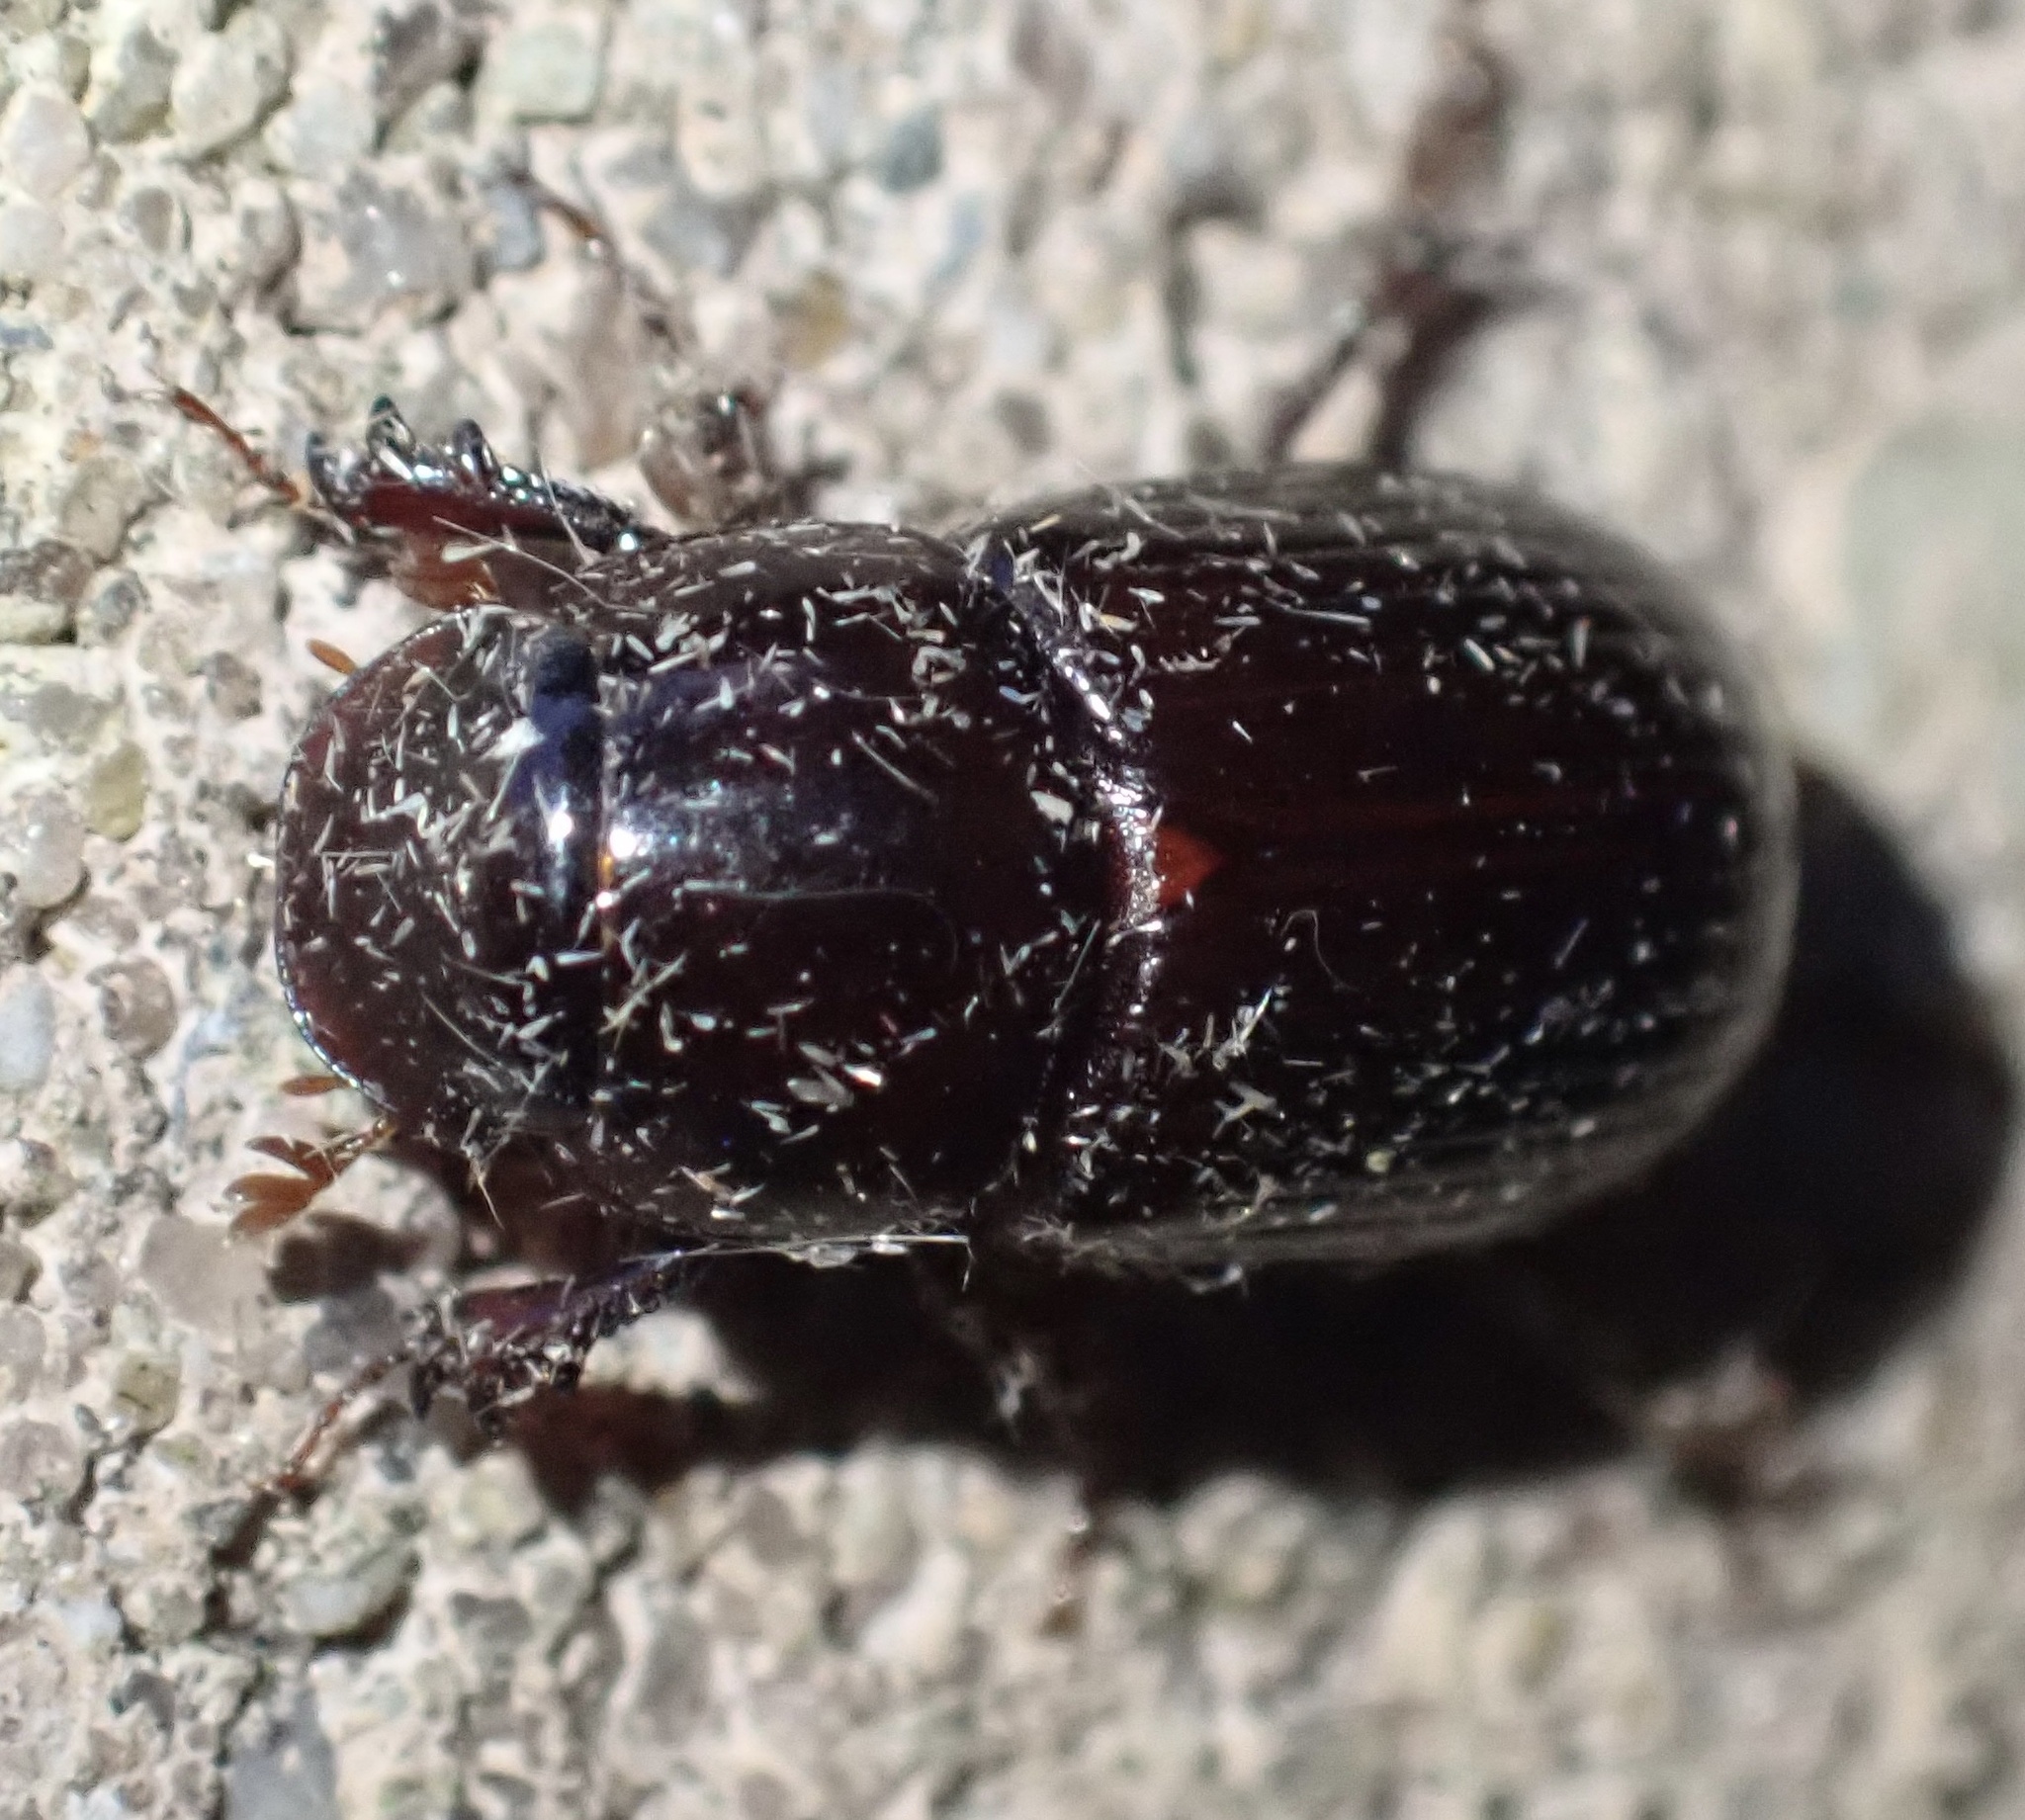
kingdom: Animalia
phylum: Arthropoda
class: Insecta
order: Coleoptera
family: Scarabaeidae
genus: Acrossus
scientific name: Acrossus rufipes
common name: Night-flying dung beetle
